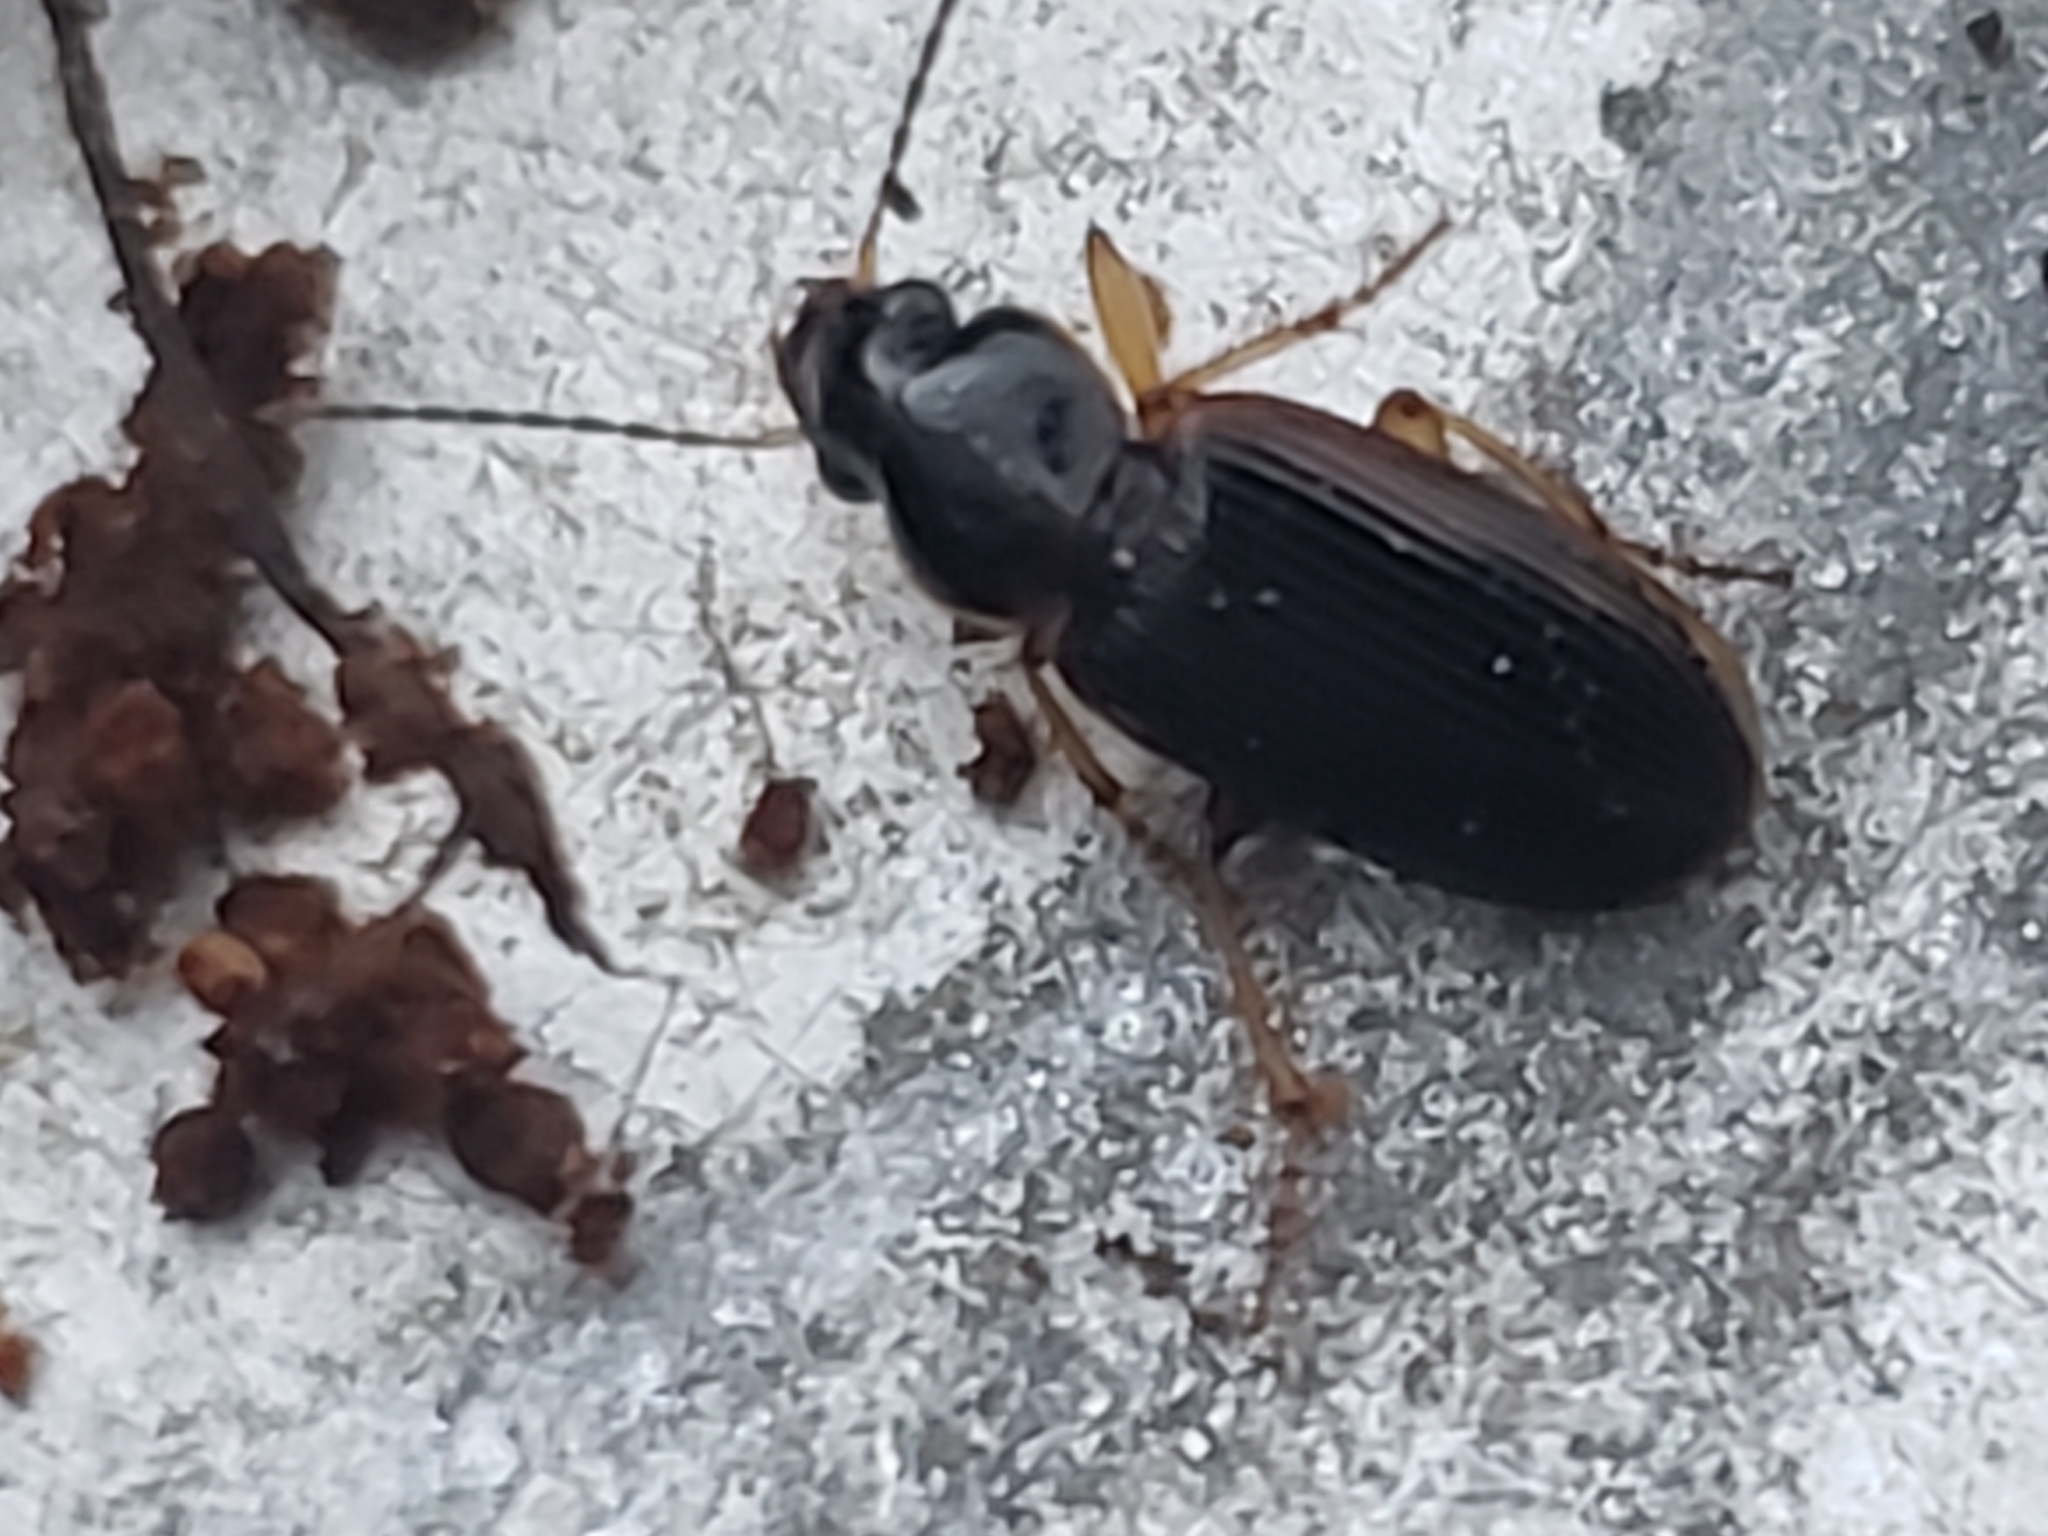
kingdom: Animalia
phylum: Arthropoda
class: Insecta
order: Coleoptera
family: Carabidae
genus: Stenolophus
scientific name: Stenolophus ochropezus
